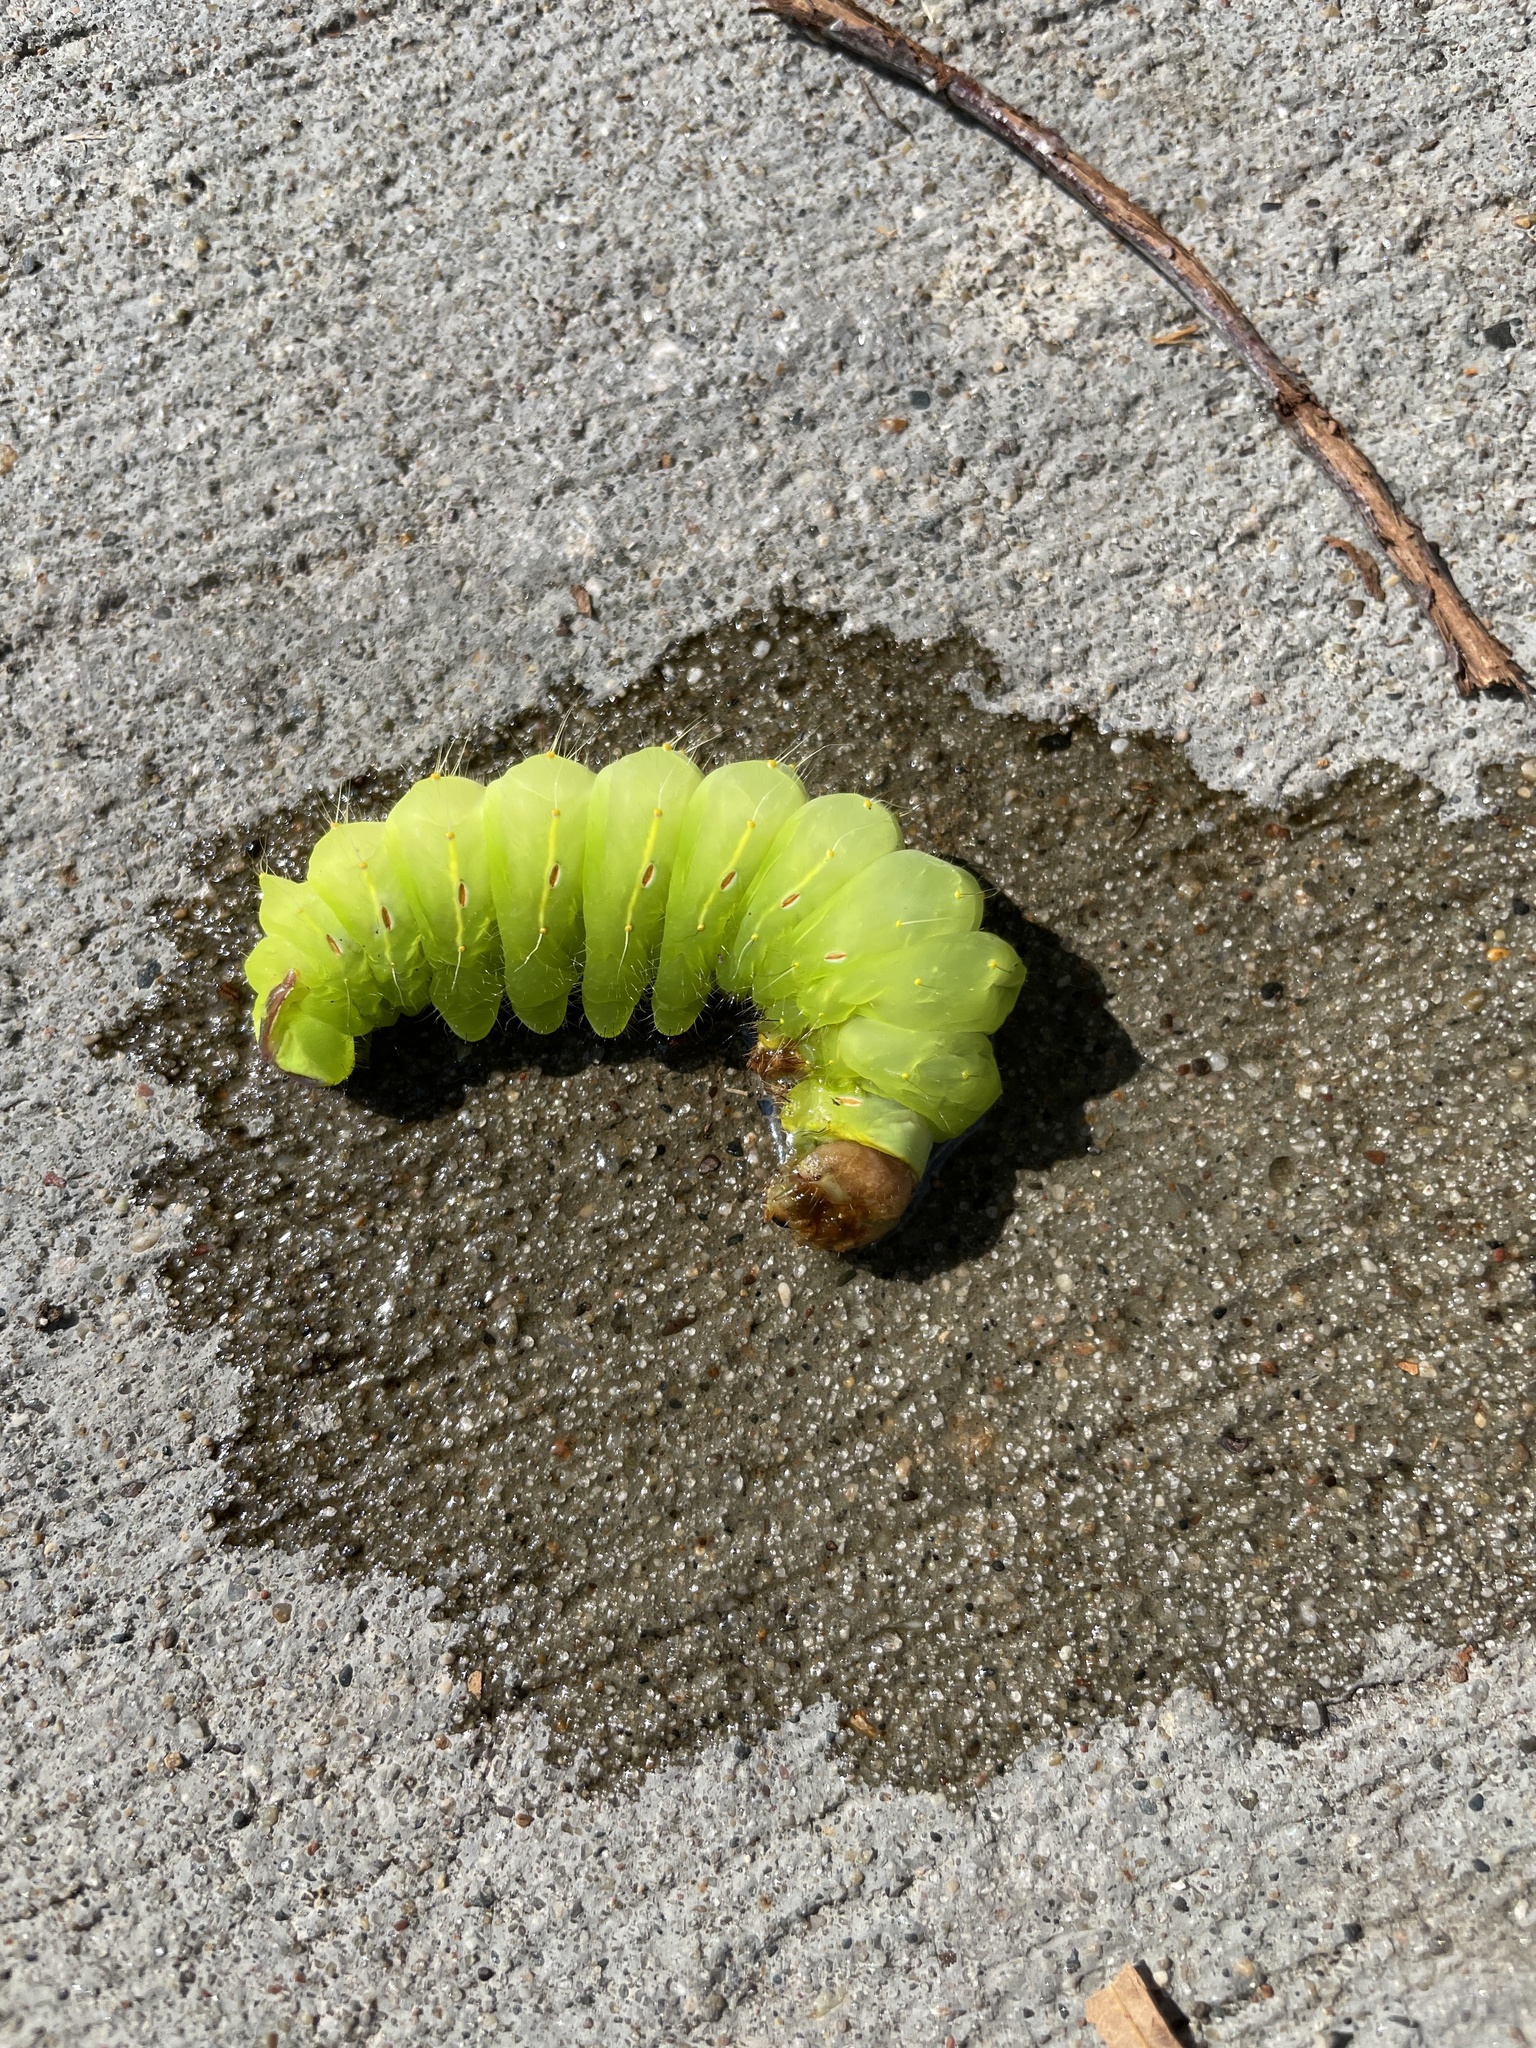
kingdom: Animalia
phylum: Arthropoda
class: Insecta
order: Lepidoptera
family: Saturniidae
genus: Antheraea
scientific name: Antheraea polyphemus
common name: Polyphemus moth
